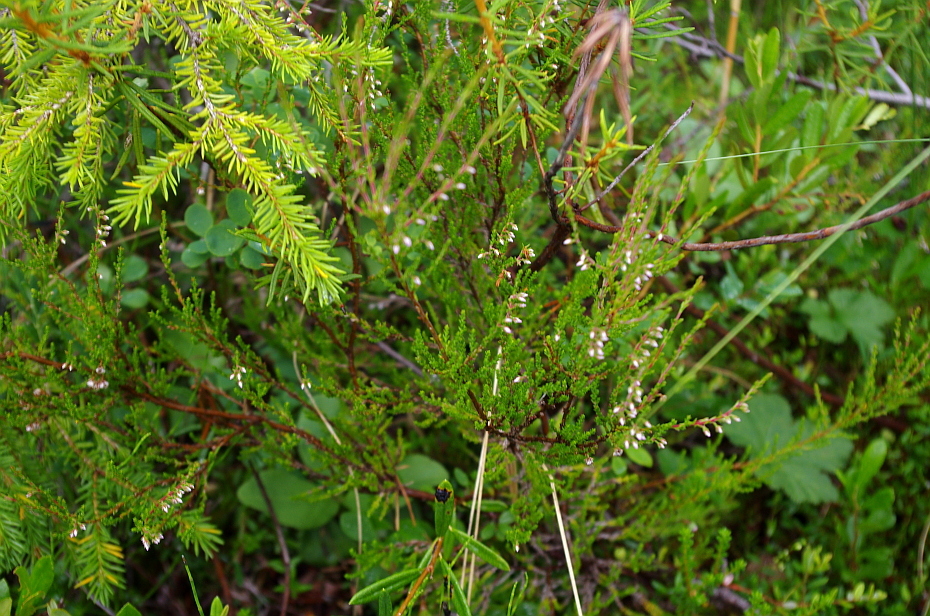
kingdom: Plantae
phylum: Tracheophyta
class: Magnoliopsida
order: Ericales
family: Ericaceae
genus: Calluna
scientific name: Calluna vulgaris
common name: Heather
